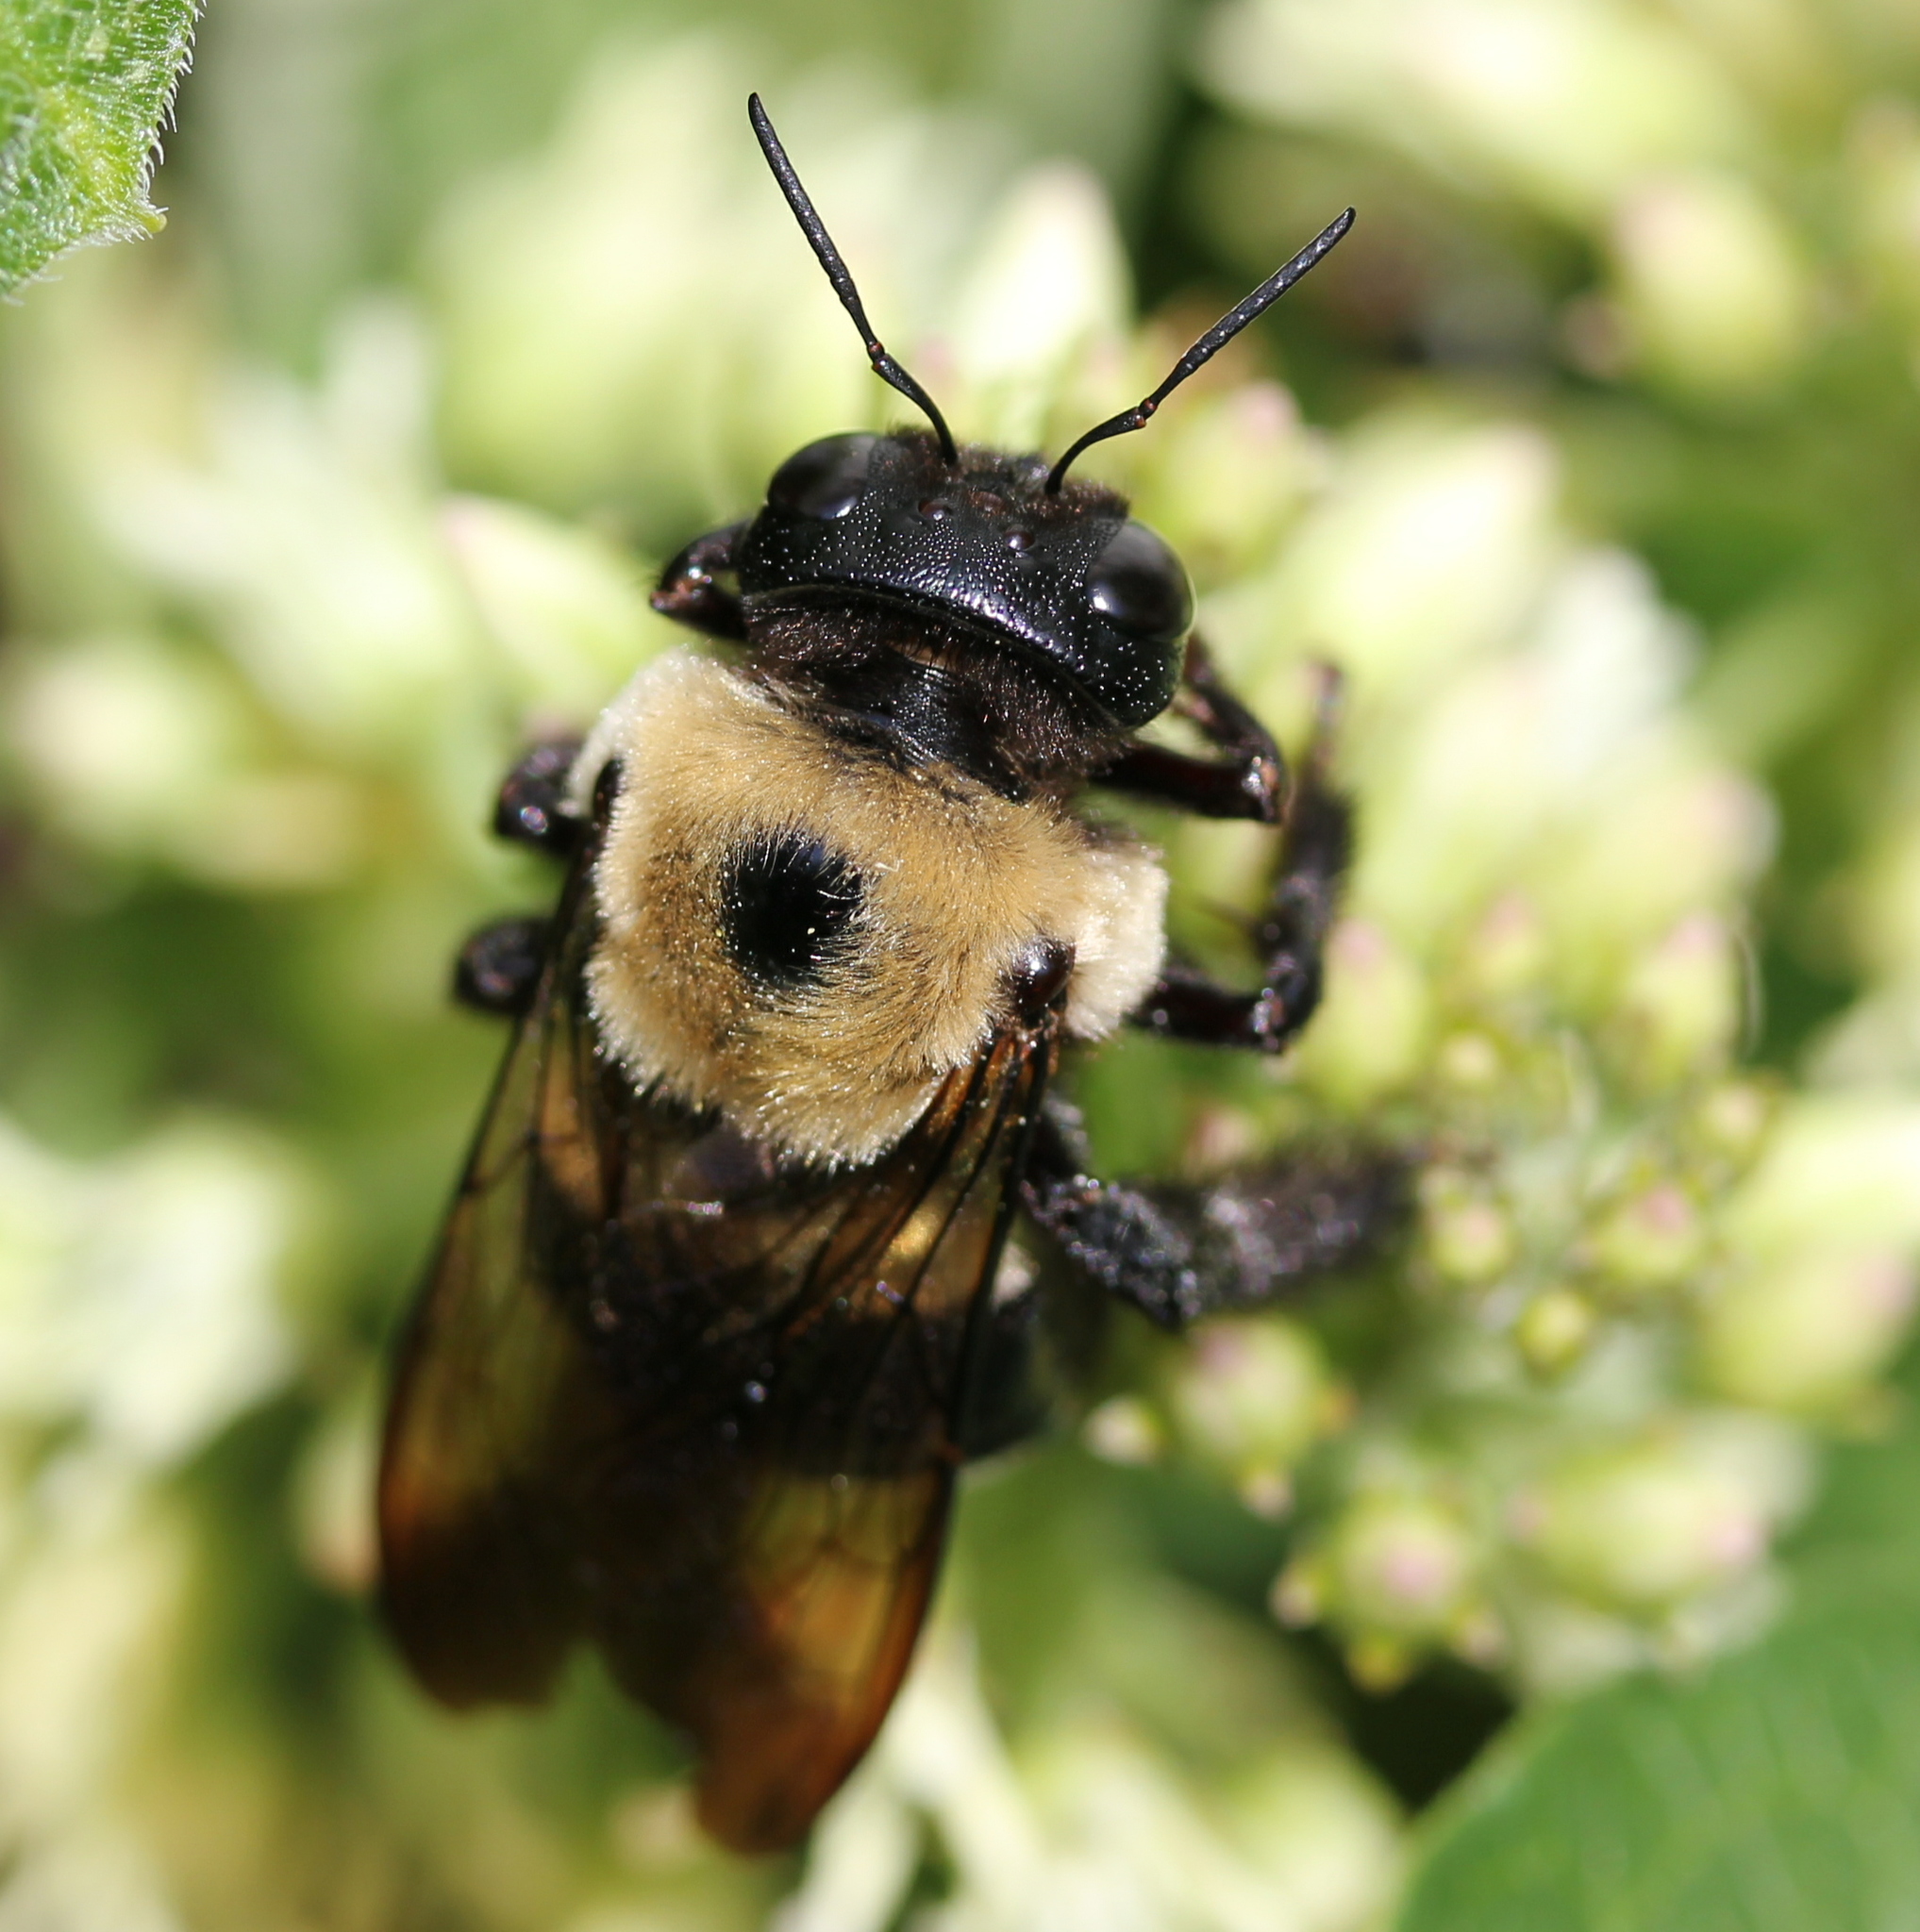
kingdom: Animalia
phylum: Arthropoda
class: Insecta
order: Hymenoptera
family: Apidae
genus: Xylocopa
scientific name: Xylocopa virginica
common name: Carpenter bee
